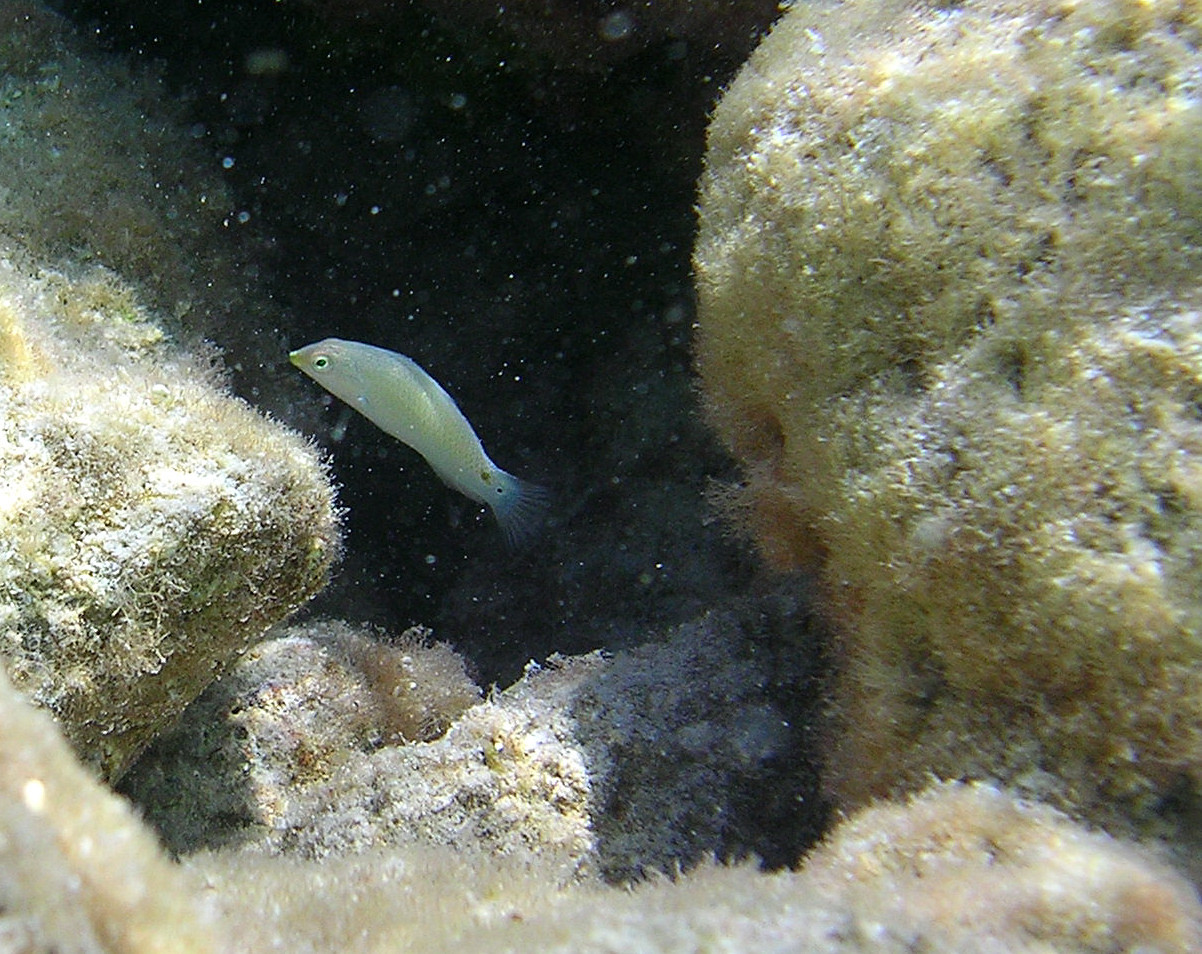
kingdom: Animalia
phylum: Chordata
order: Perciformes
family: Labridae
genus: Halichoeres
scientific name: Halichoeres trimaculatus
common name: Three-spot wrasse
